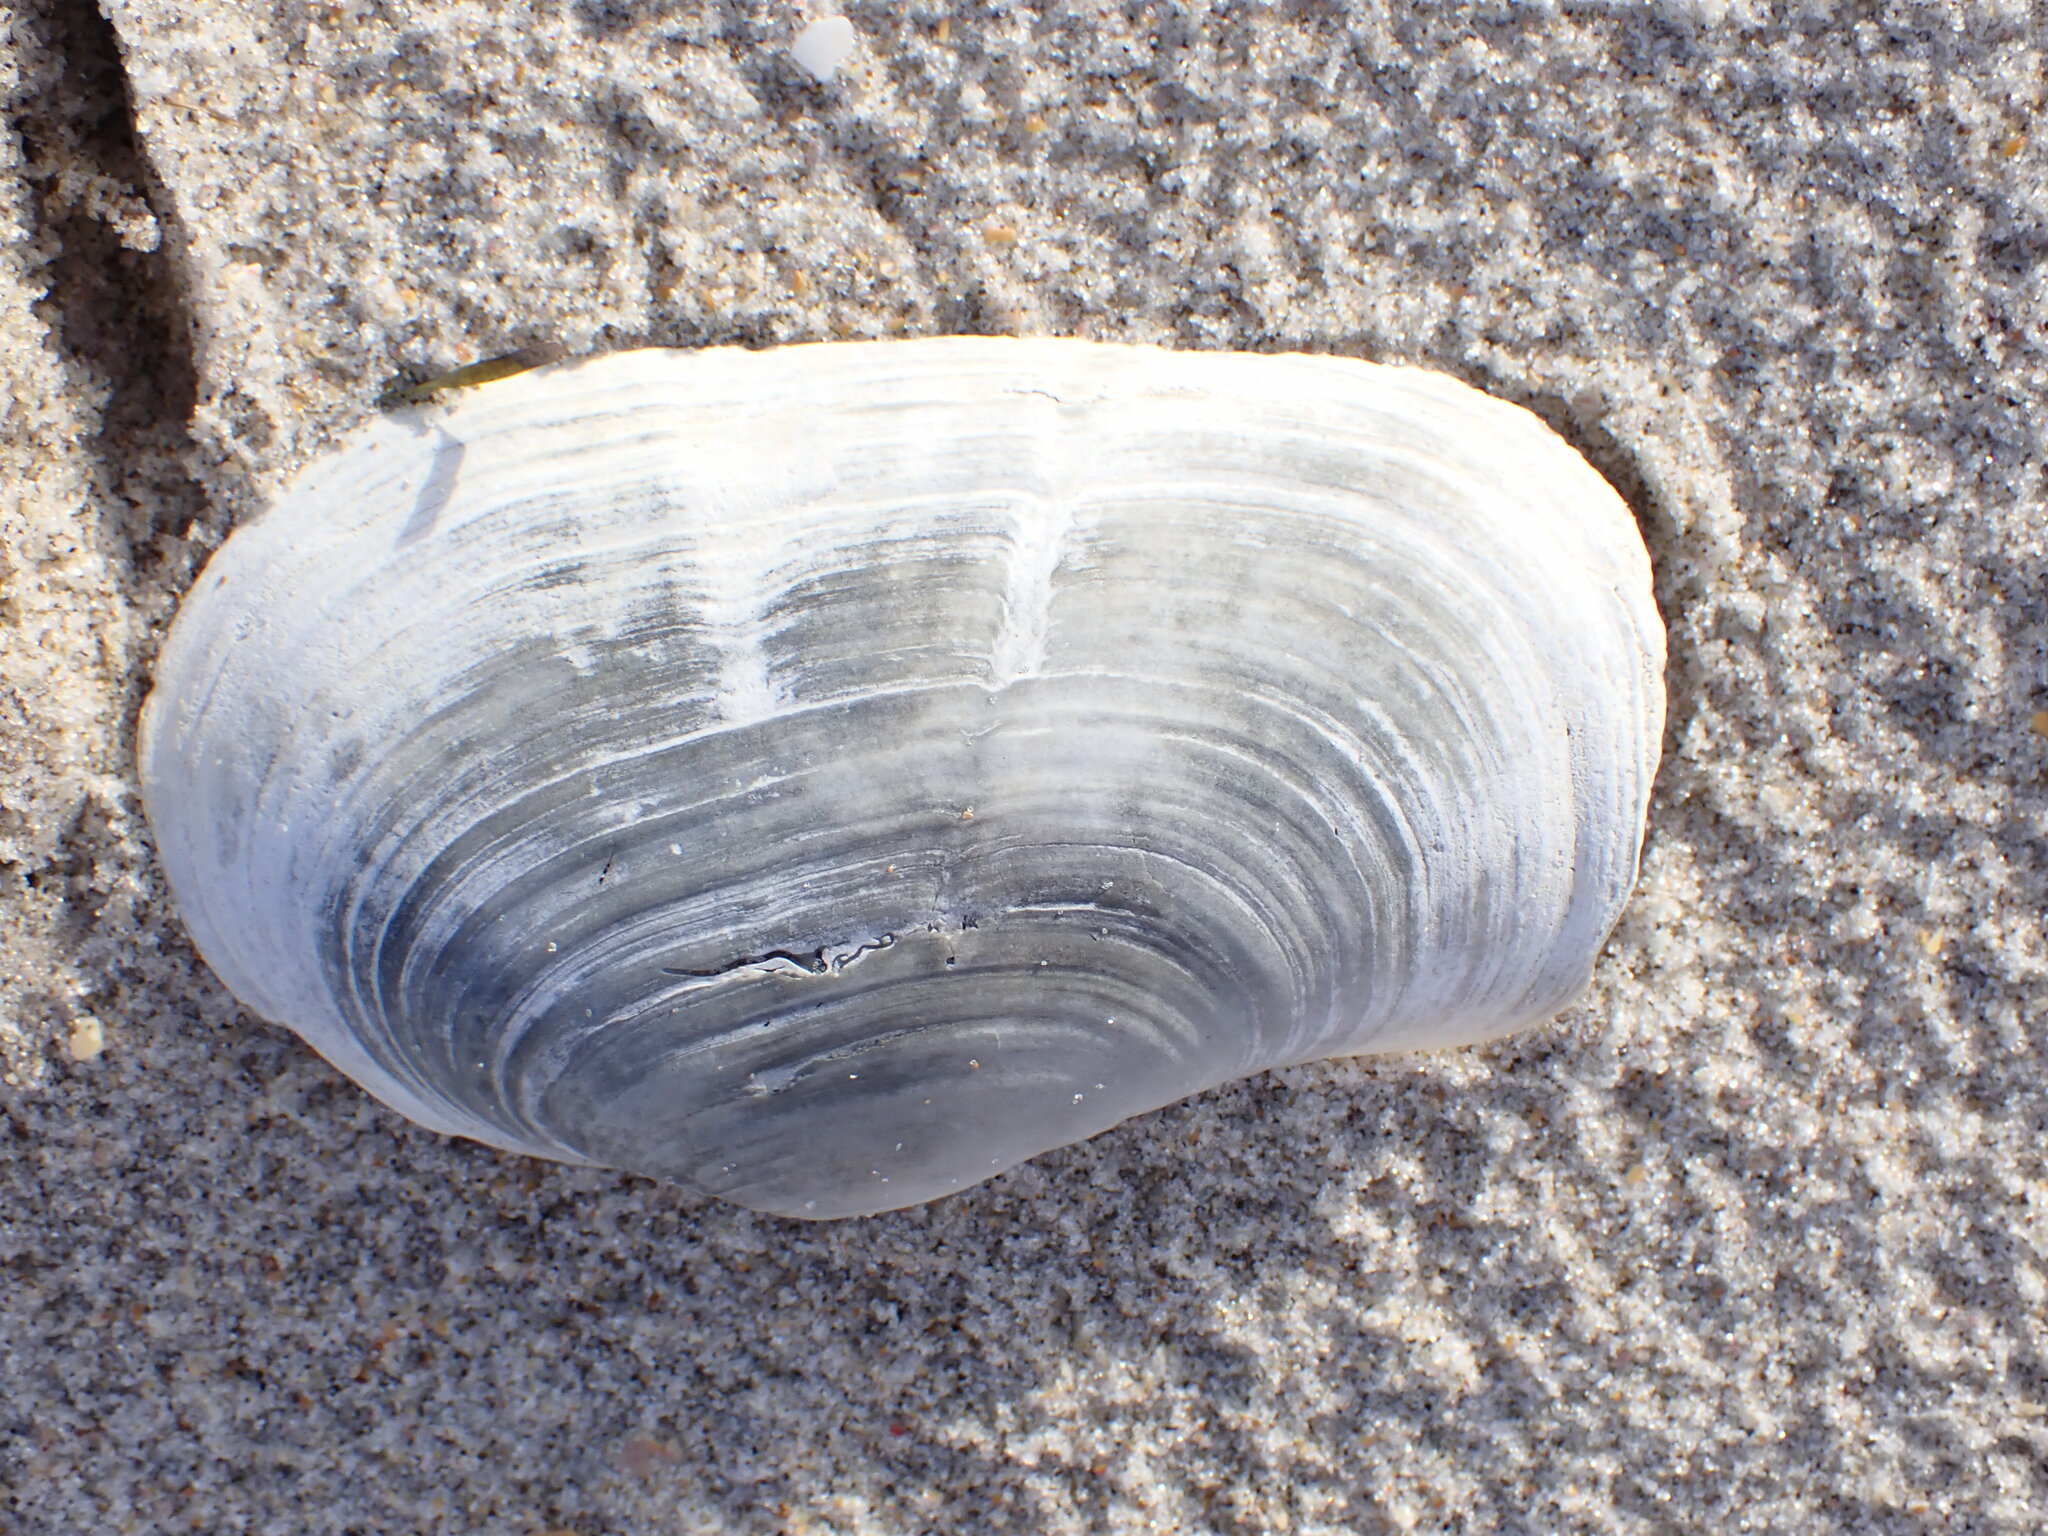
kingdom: Animalia
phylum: Mollusca
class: Bivalvia
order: Adapedonta
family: Hiatellidae
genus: Panopea
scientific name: Panopea zelandica
